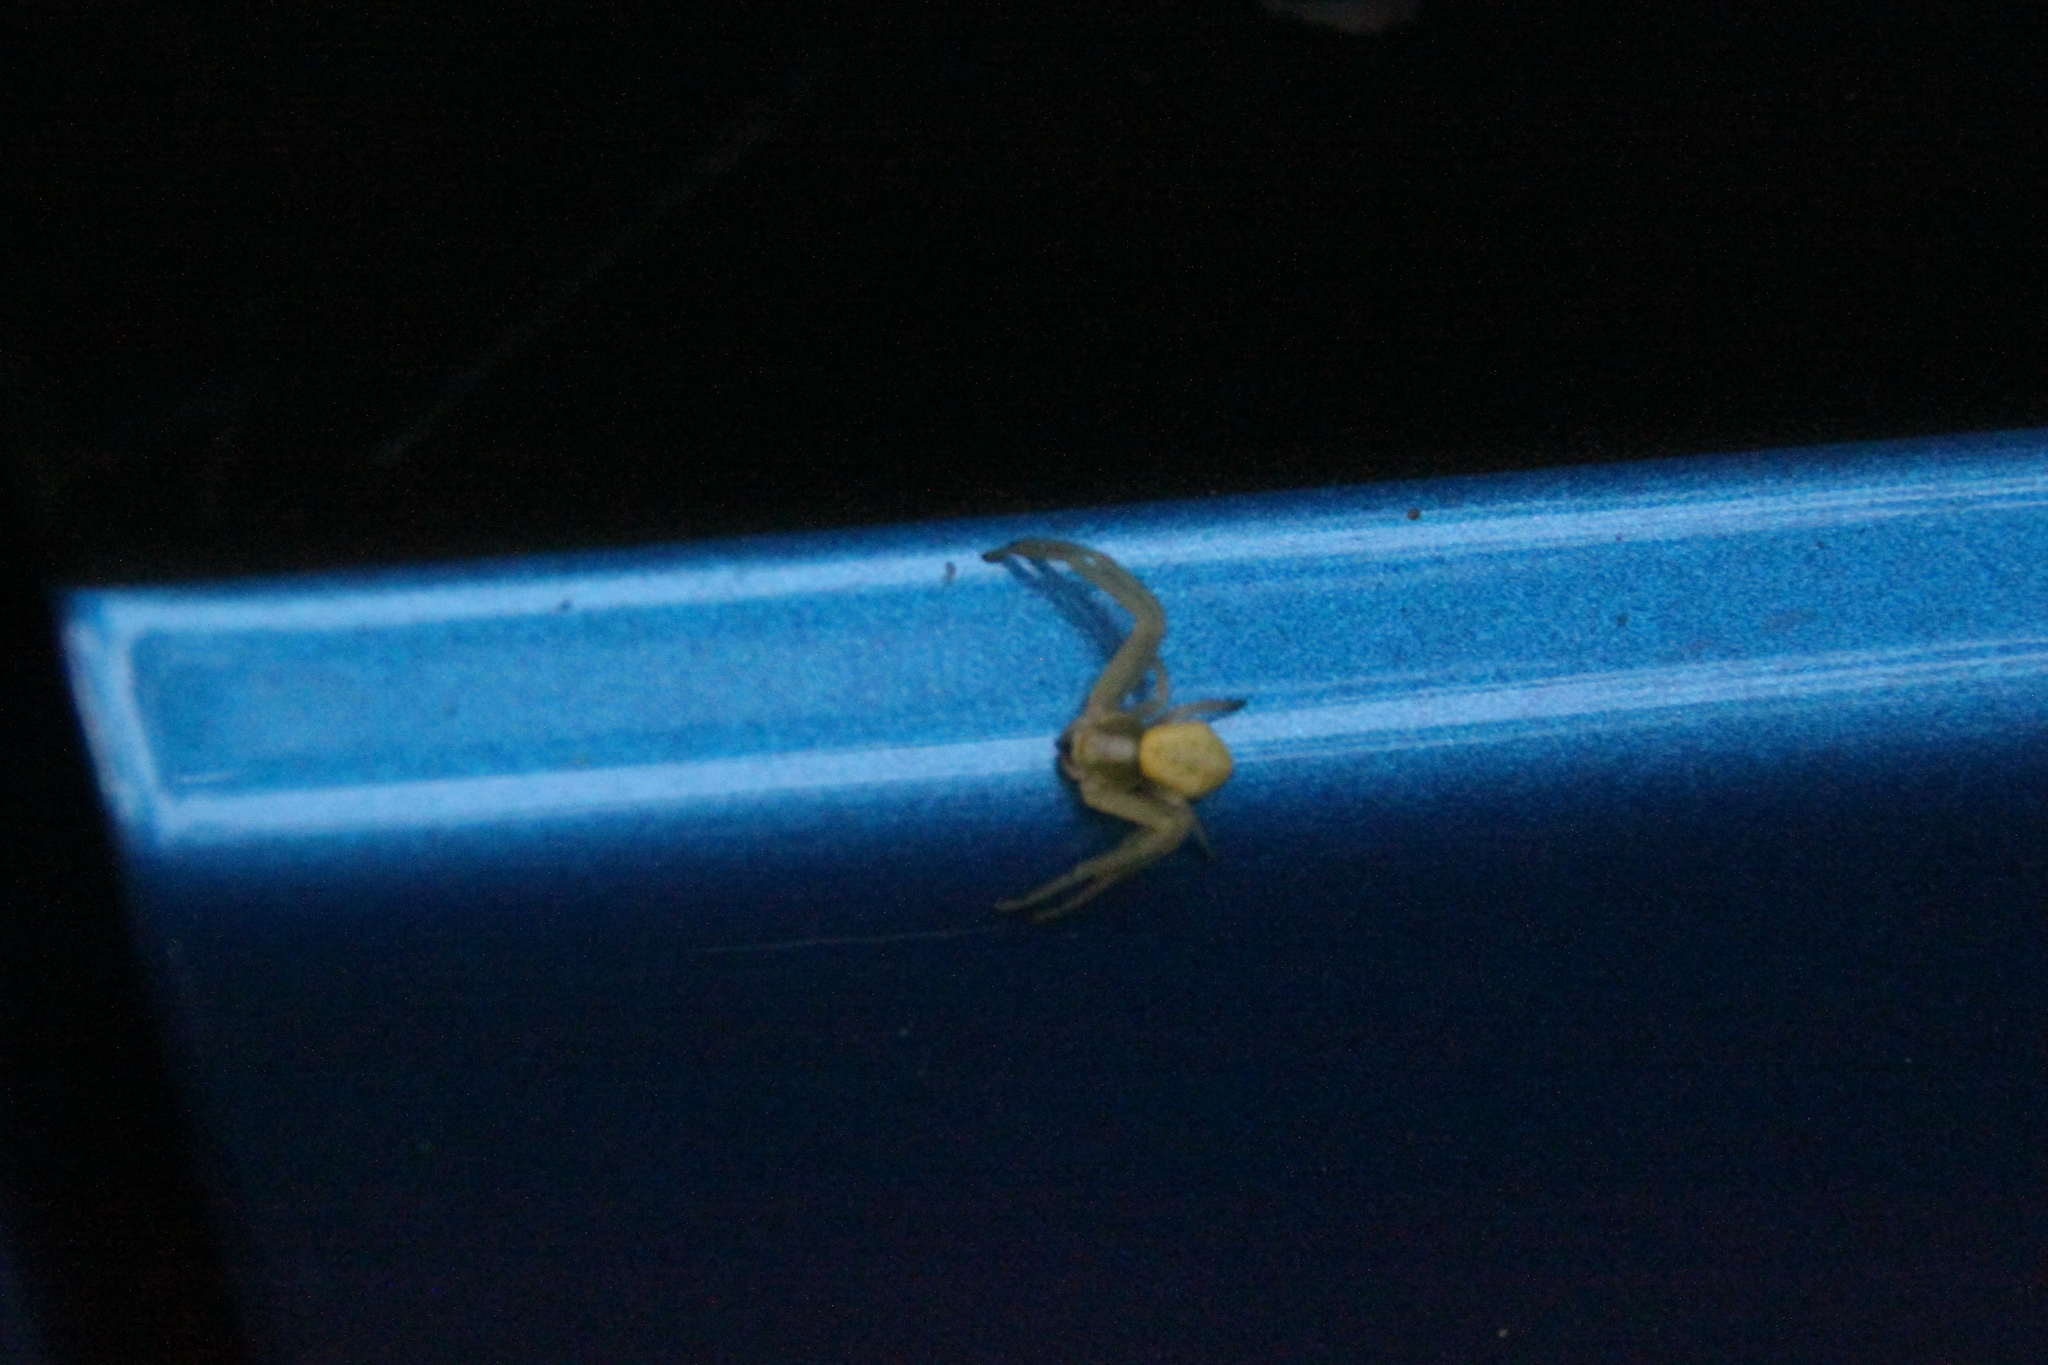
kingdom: Animalia
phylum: Arthropoda
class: Arachnida
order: Araneae
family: Thomisidae
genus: Misumena
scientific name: Misumena vatia
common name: Goldenrod crab spider
